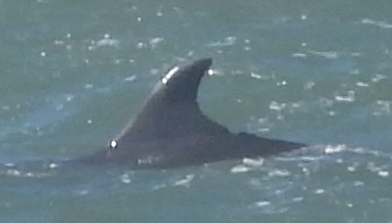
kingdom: Animalia
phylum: Chordata
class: Mammalia
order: Cetacea
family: Delphinidae
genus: Tursiops
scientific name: Tursiops truncatus
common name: Bottlenose dolphin
